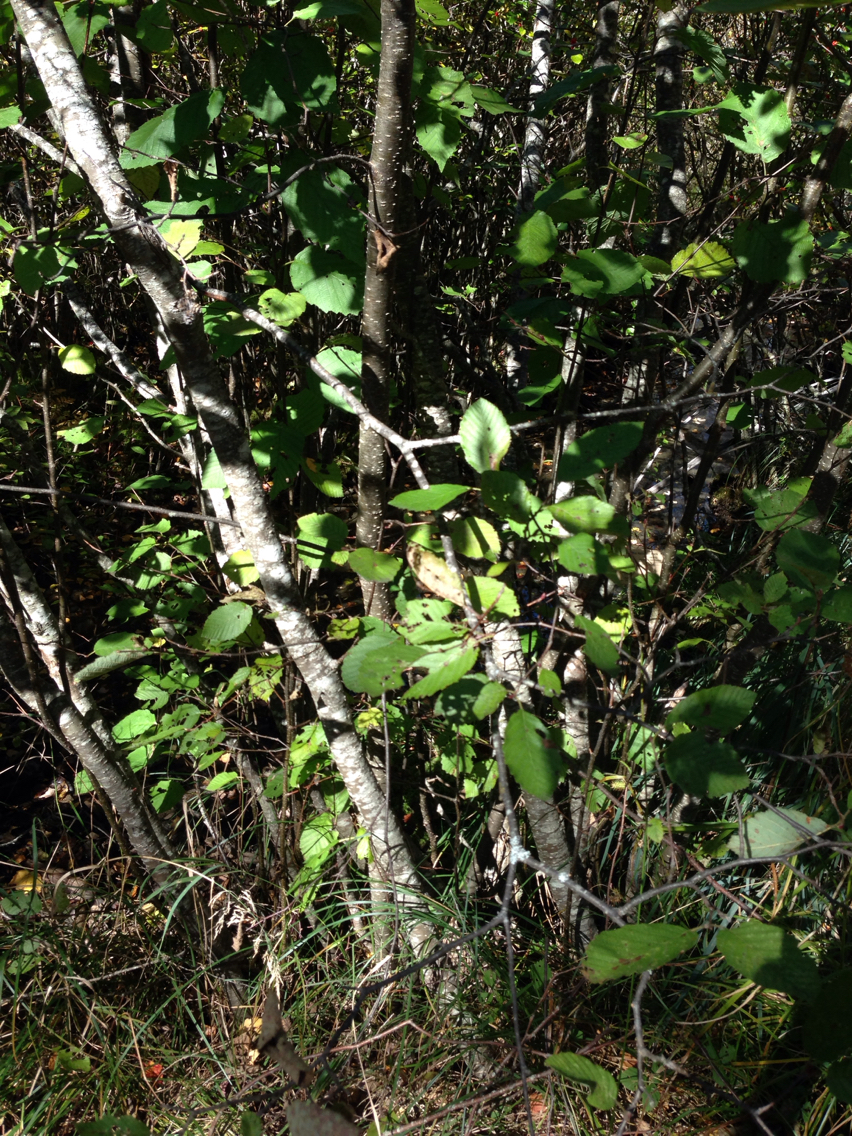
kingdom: Plantae
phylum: Tracheophyta
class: Magnoliopsida
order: Fagales
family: Betulaceae
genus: Alnus
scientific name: Alnus incana
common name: Grey alder
